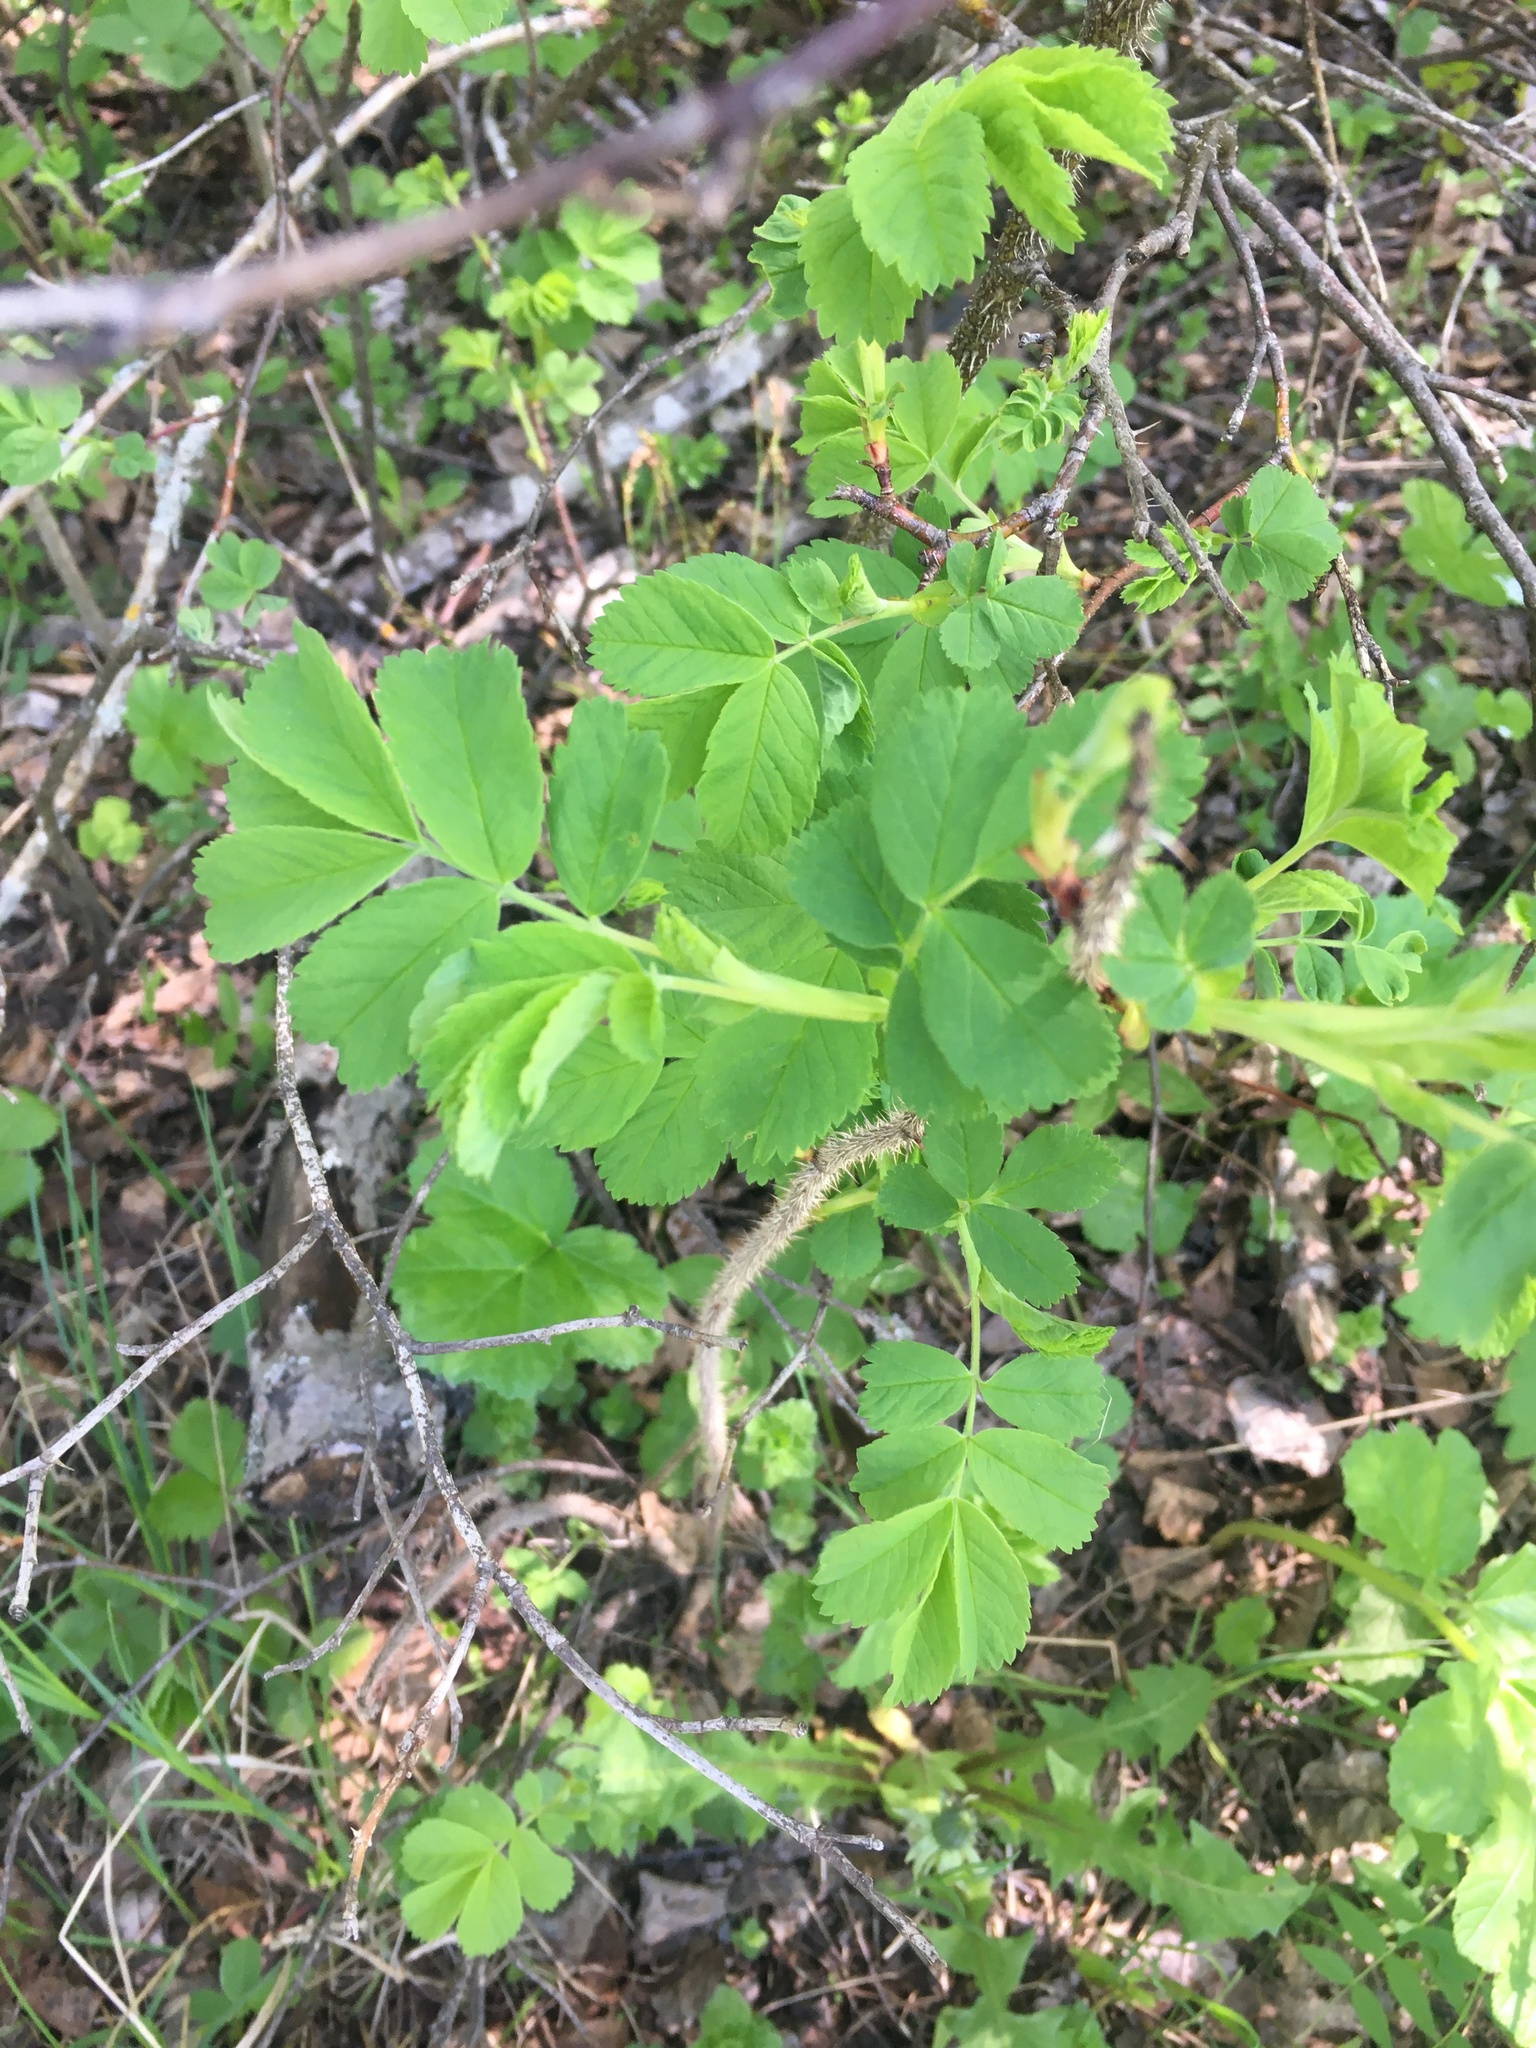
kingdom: Plantae
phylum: Tracheophyta
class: Magnoliopsida
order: Rosales
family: Rosaceae
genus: Rosa
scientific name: Rosa rugosa
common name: Japanese rose
